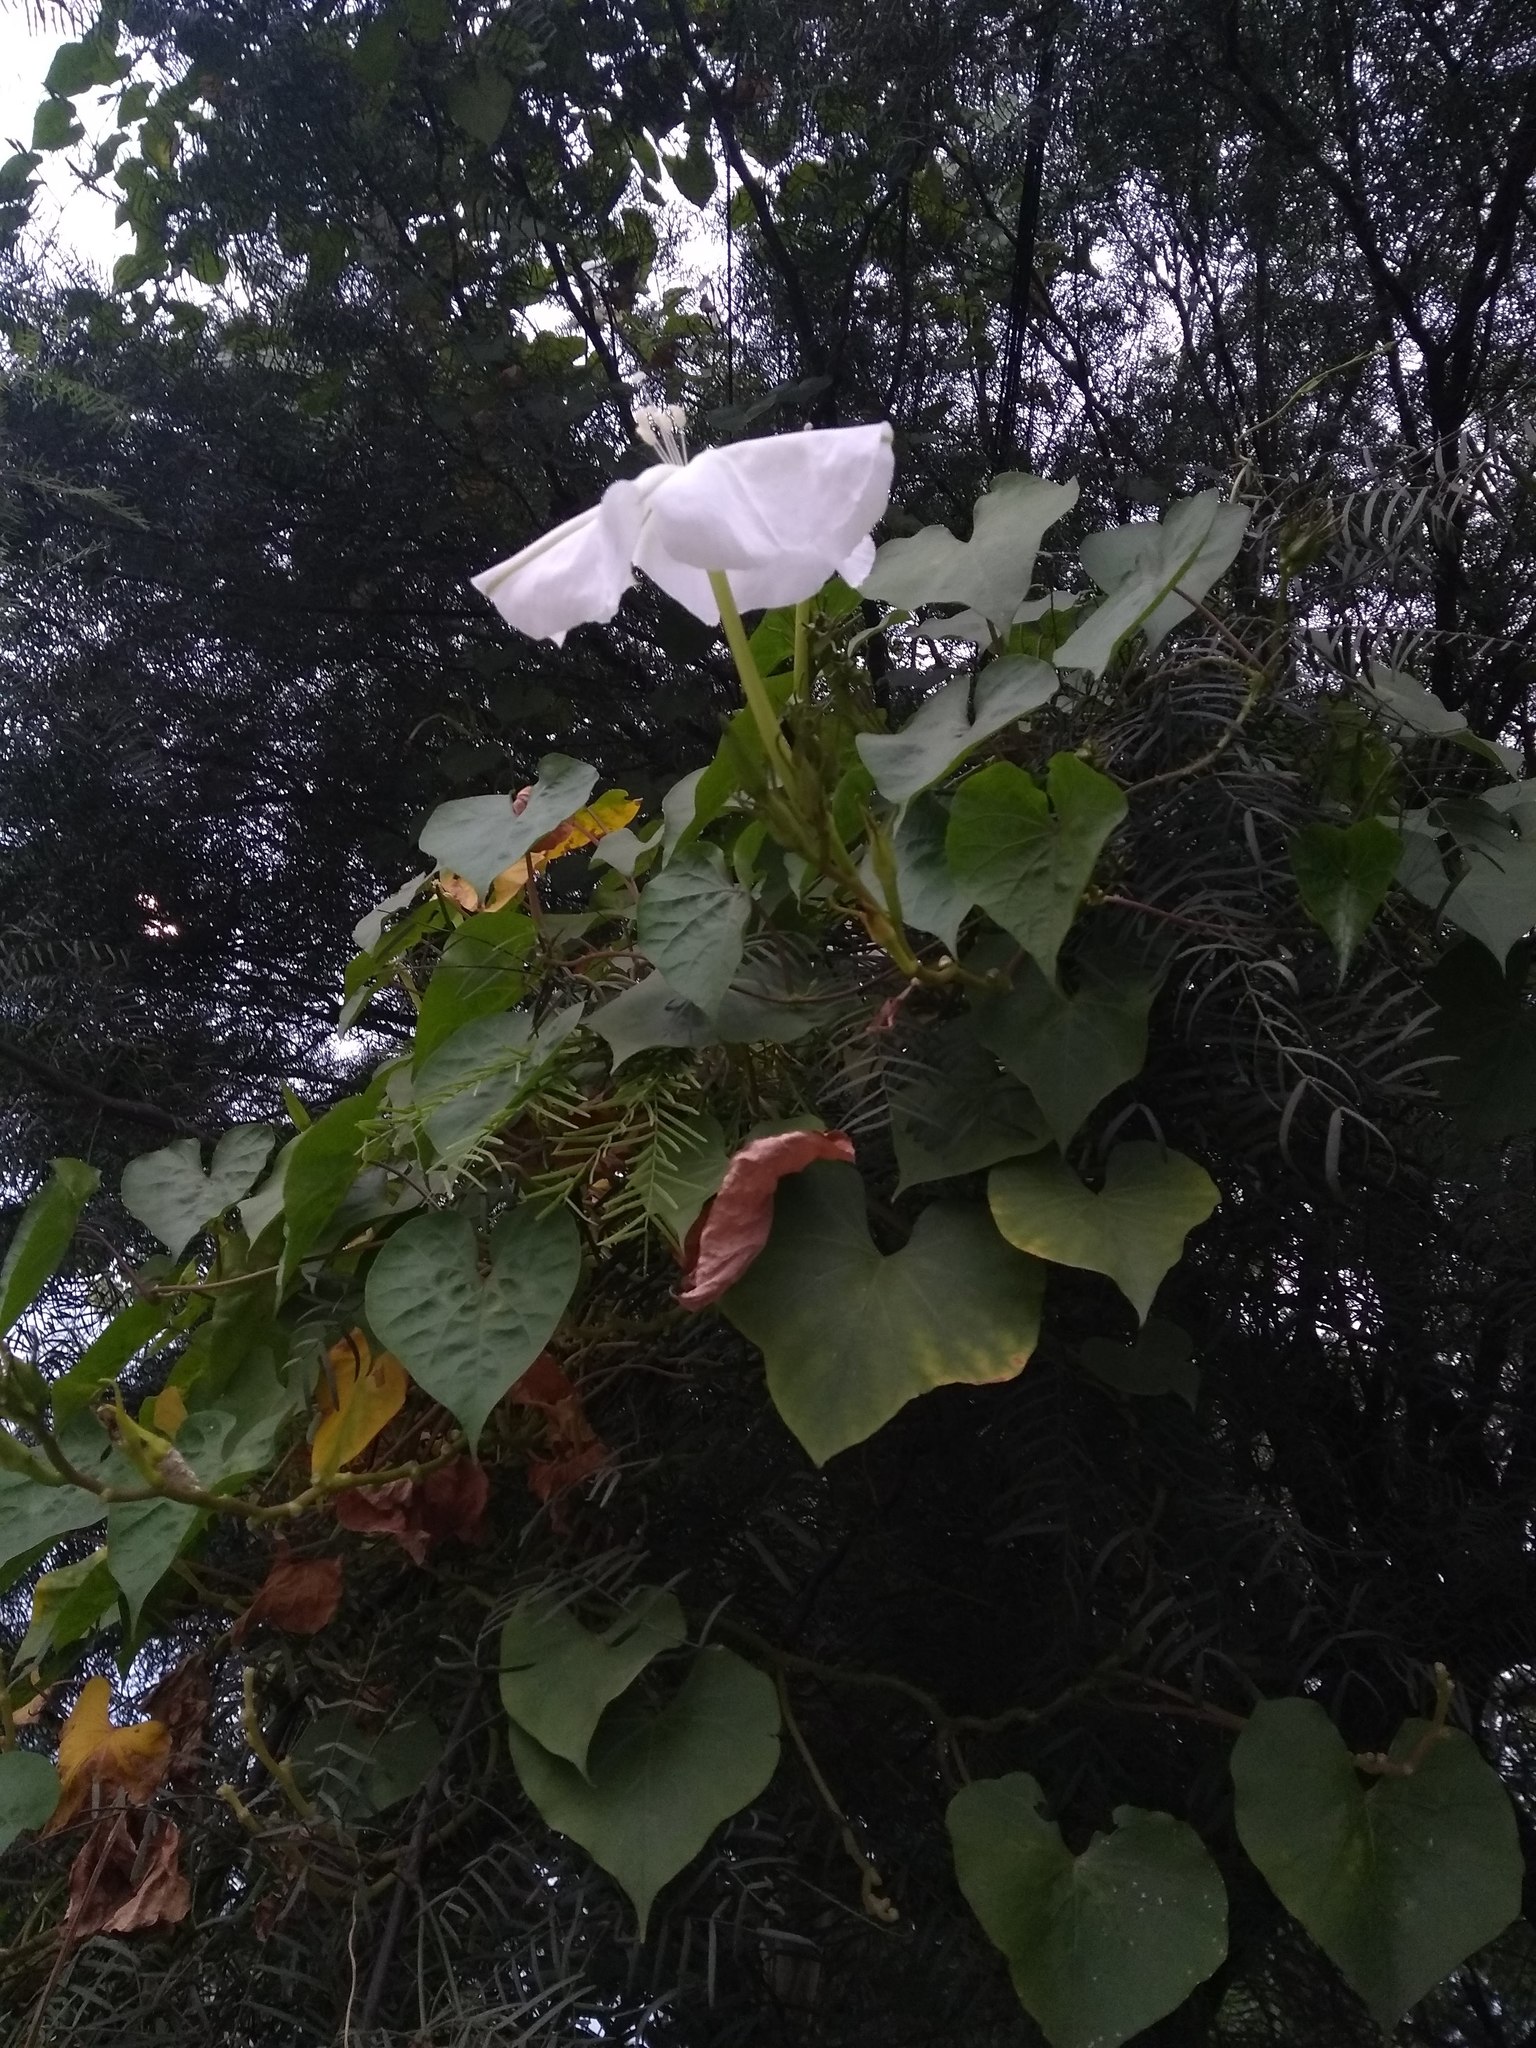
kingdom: Plantae
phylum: Tracheophyta
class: Magnoliopsida
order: Solanales
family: Convolvulaceae
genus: Ipomoea
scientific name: Ipomoea alba
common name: Moonflower
